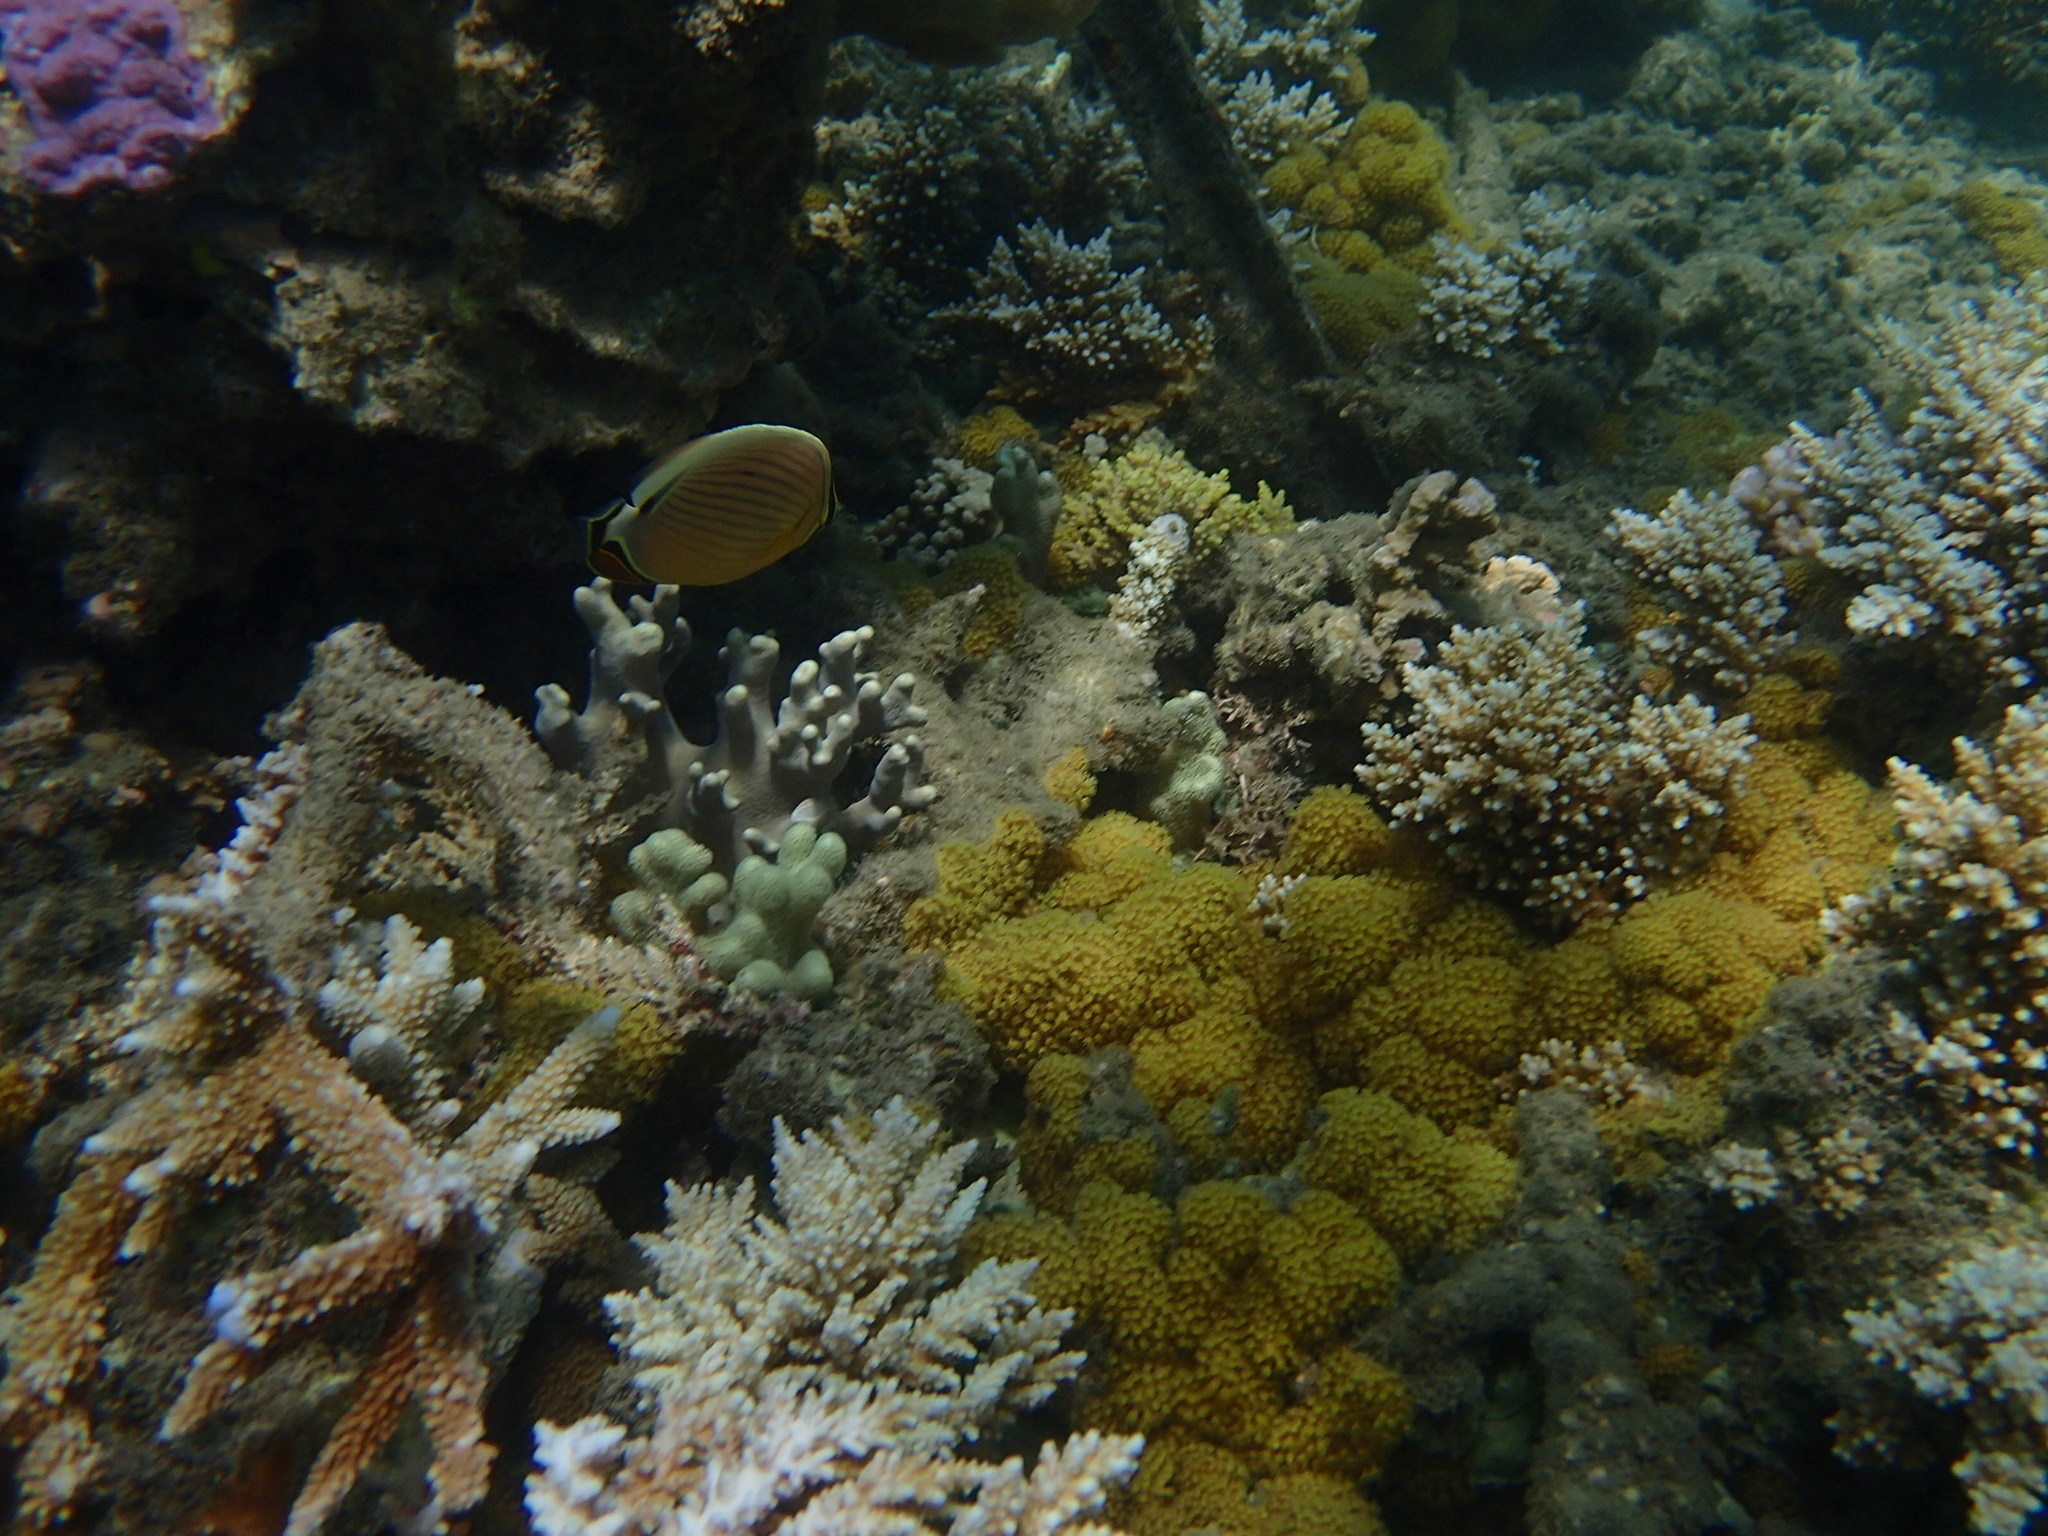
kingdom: Animalia
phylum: Chordata
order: Perciformes
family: Chaetodontidae
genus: Chaetodon
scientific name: Chaetodon lunulatus
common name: Redfin butterflyfish
